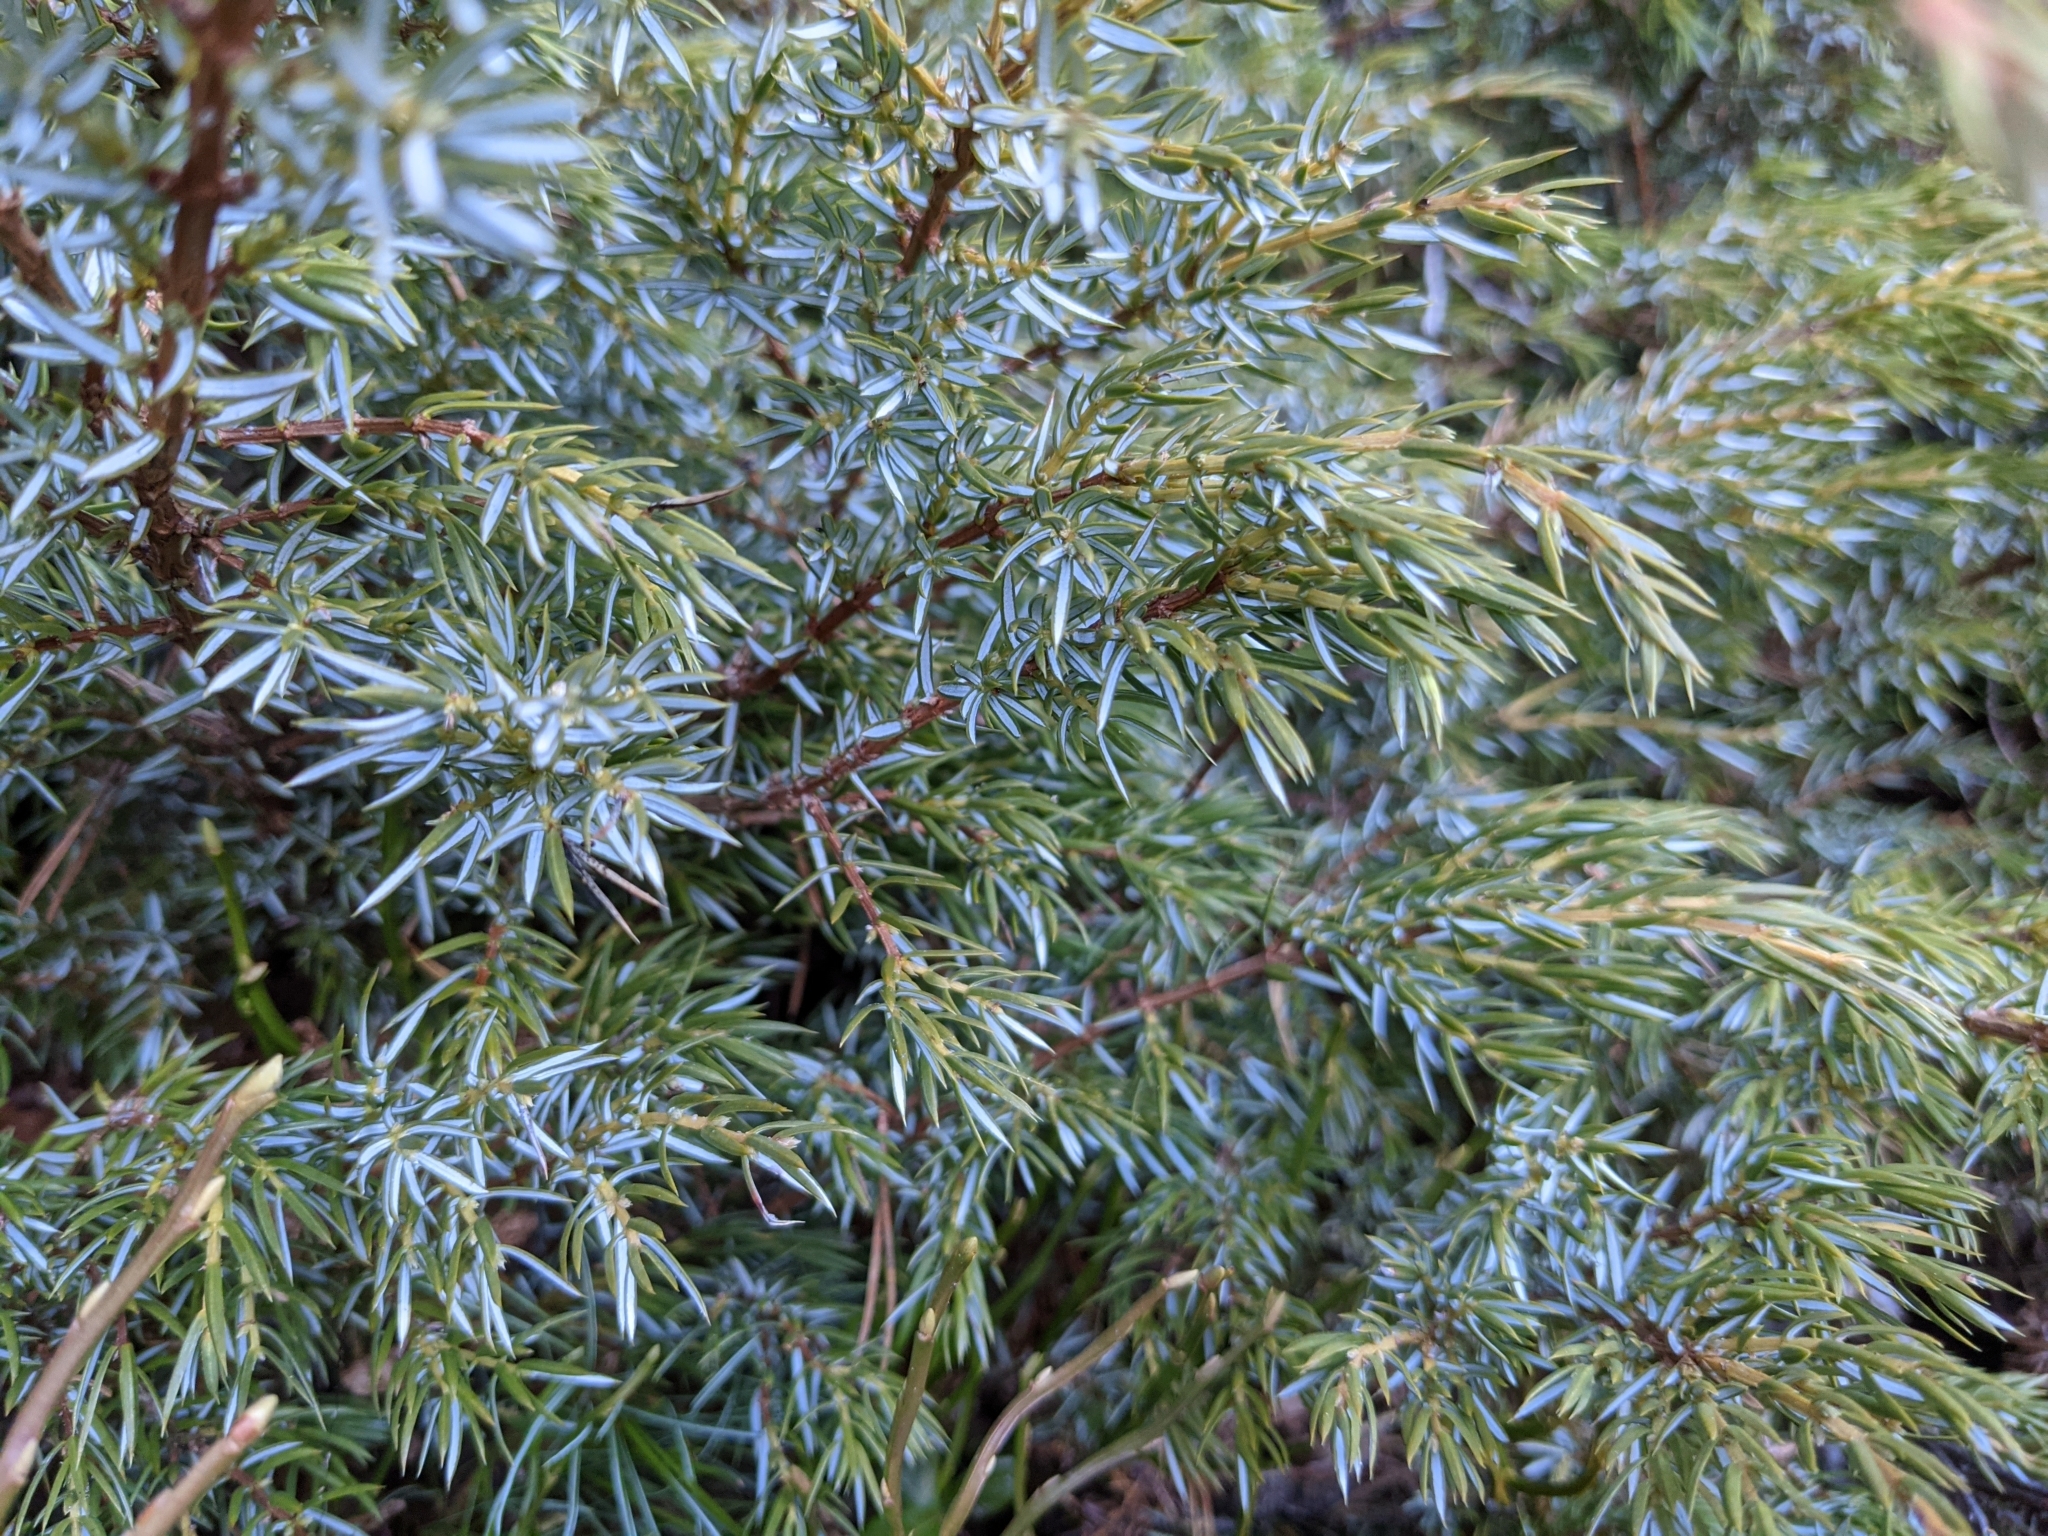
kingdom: Plantae
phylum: Tracheophyta
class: Pinopsida
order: Pinales
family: Cupressaceae
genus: Juniperus
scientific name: Juniperus communis
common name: Common juniper
